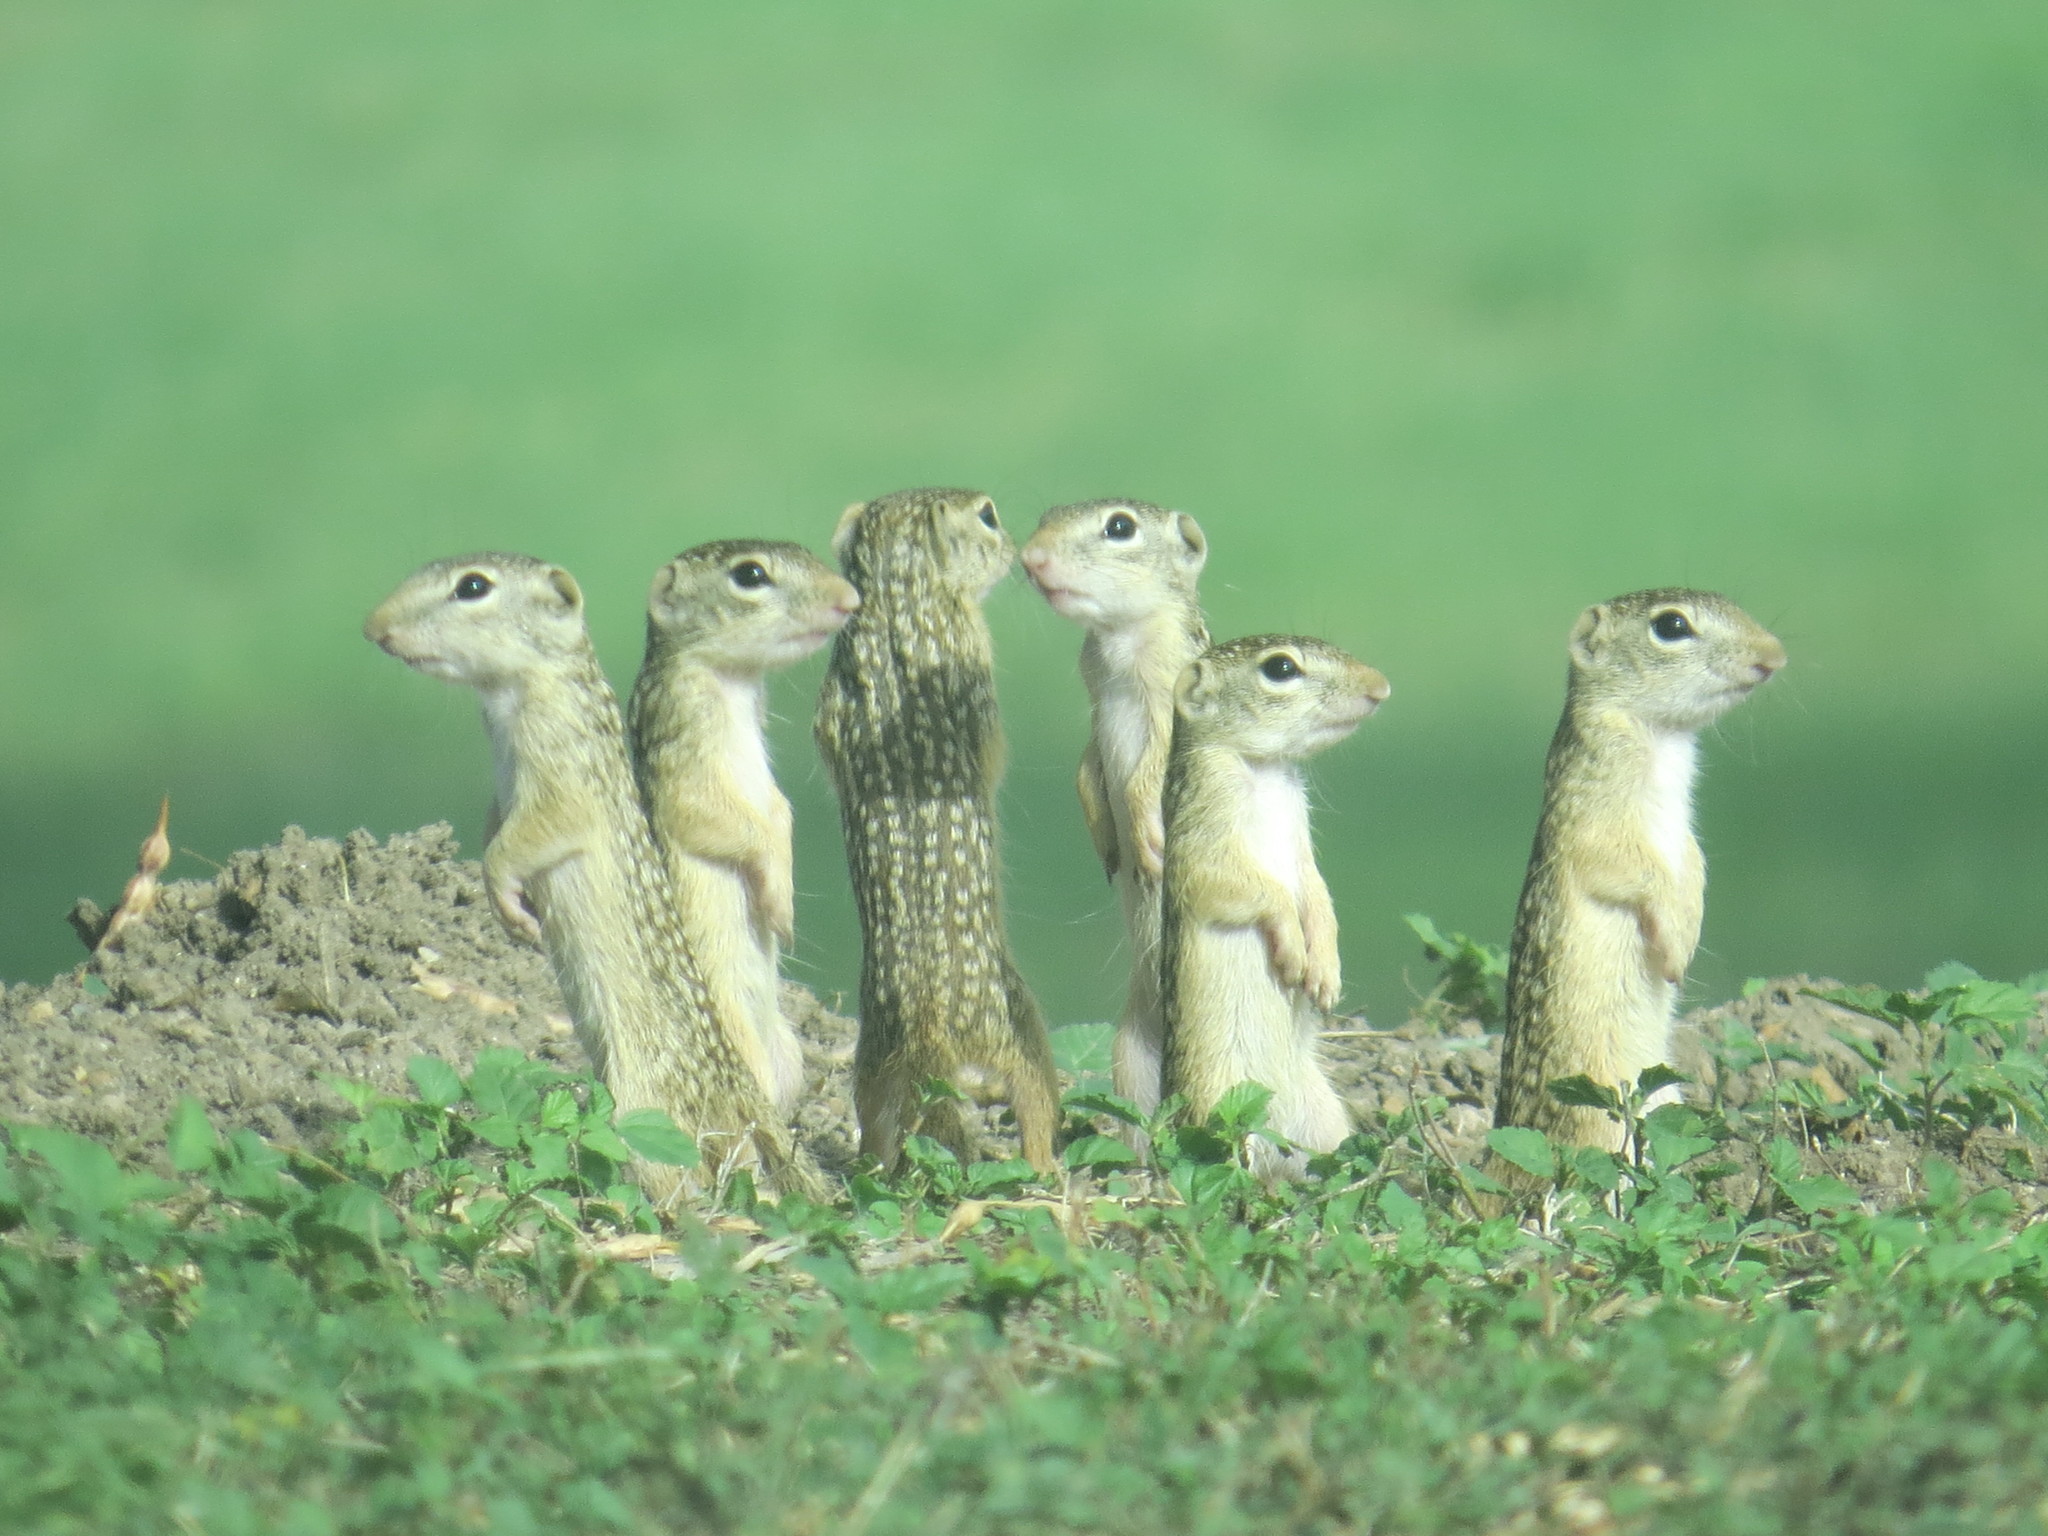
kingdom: Animalia
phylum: Chordata
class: Mammalia
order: Rodentia
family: Sciuridae
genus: Ictidomys
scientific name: Ictidomys parvidens
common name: Rio grande ground squirrel
